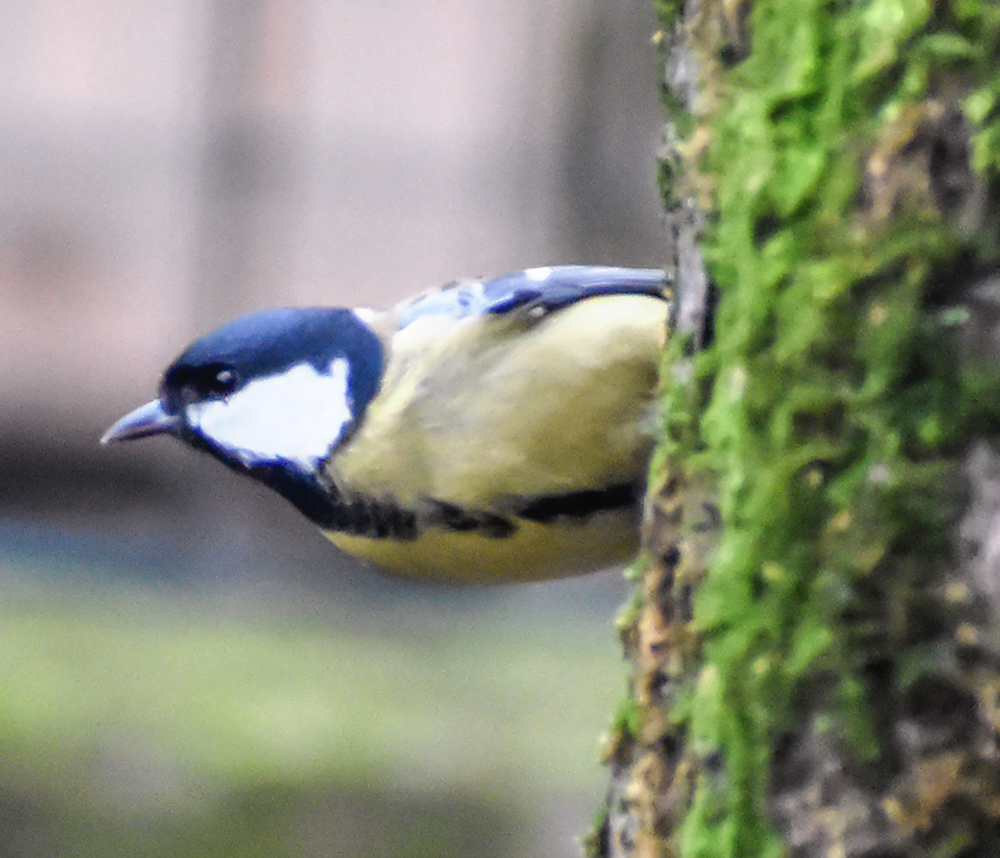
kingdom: Animalia
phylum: Chordata
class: Aves
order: Passeriformes
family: Paridae
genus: Parus
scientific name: Parus major
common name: Great tit
